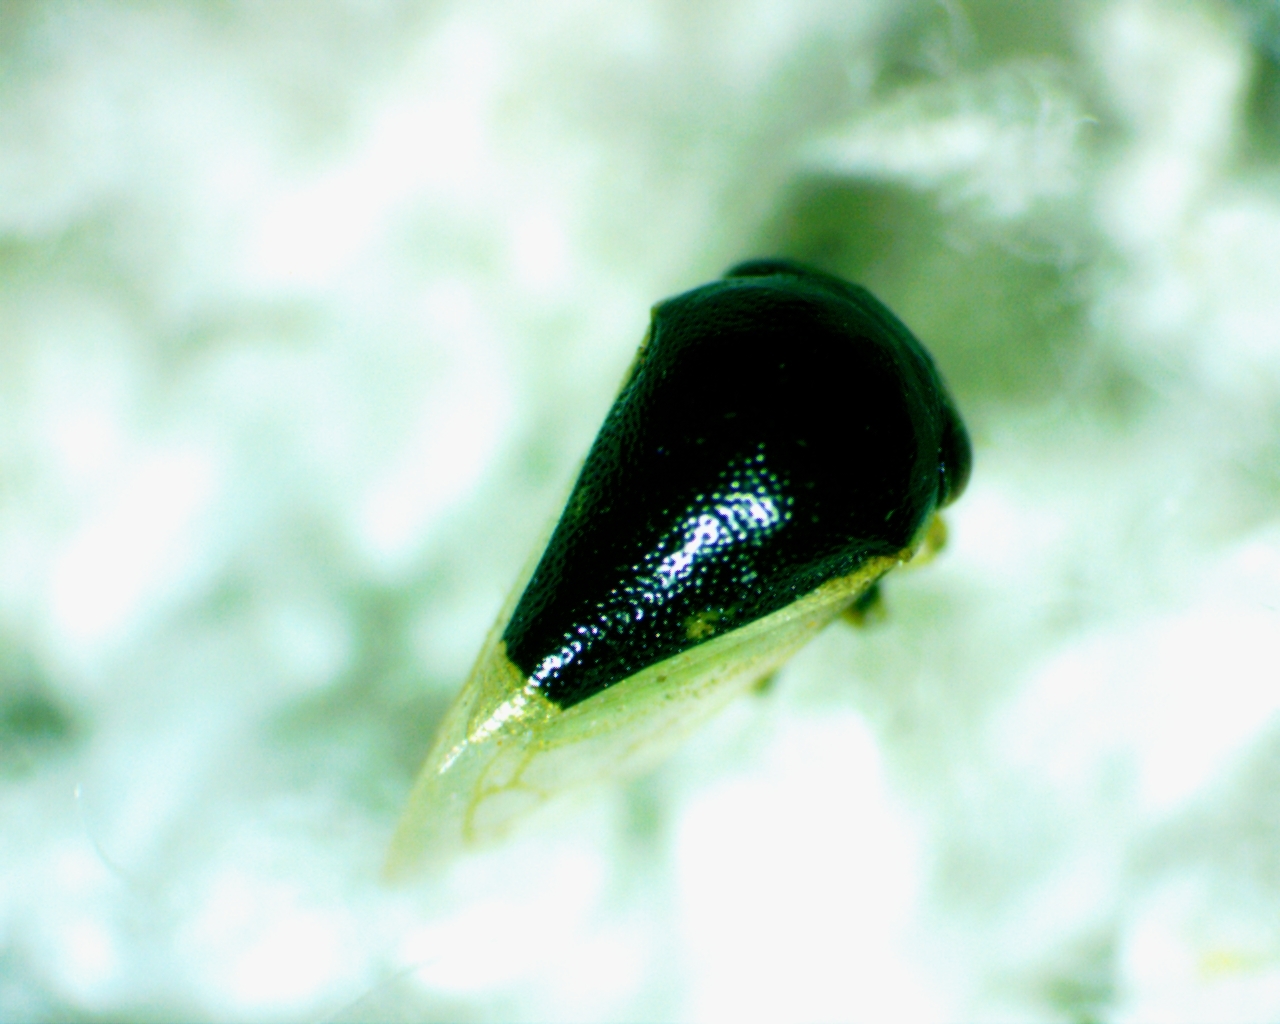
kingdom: Animalia
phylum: Arthropoda
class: Insecta
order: Hemiptera
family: Membracidae
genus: Micrutalis
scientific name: Micrutalis calva
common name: Honeylocust treehopper
